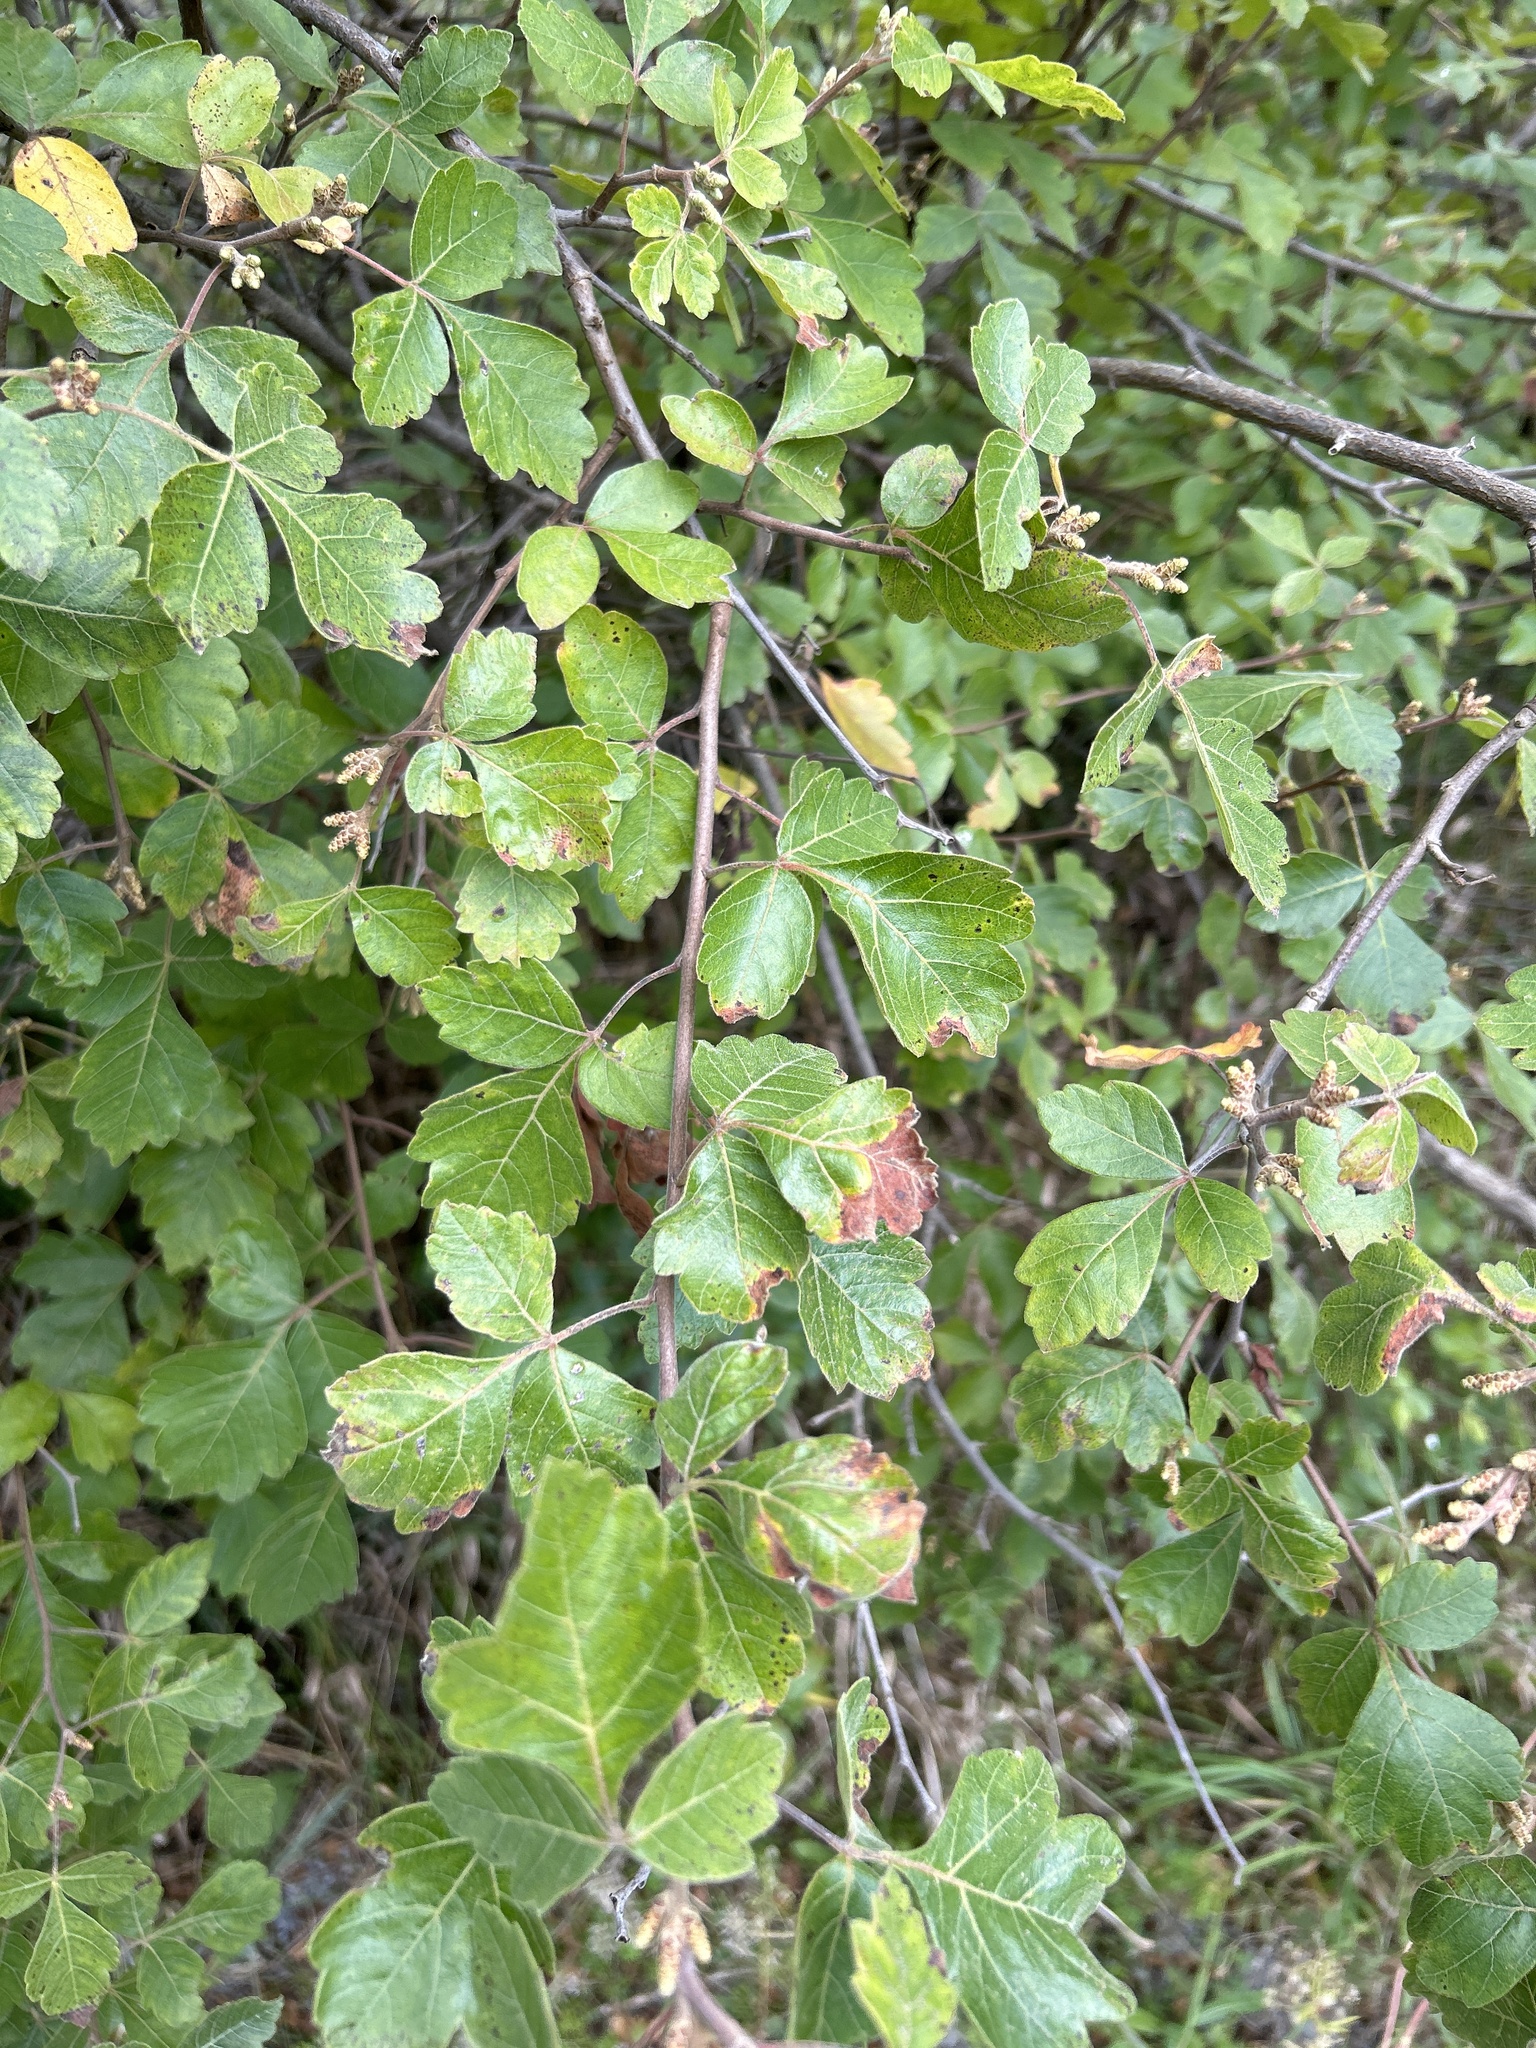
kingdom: Plantae
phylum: Tracheophyta
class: Magnoliopsida
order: Sapindales
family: Anacardiaceae
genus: Rhus
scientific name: Rhus aromatica
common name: Aromatic sumac
